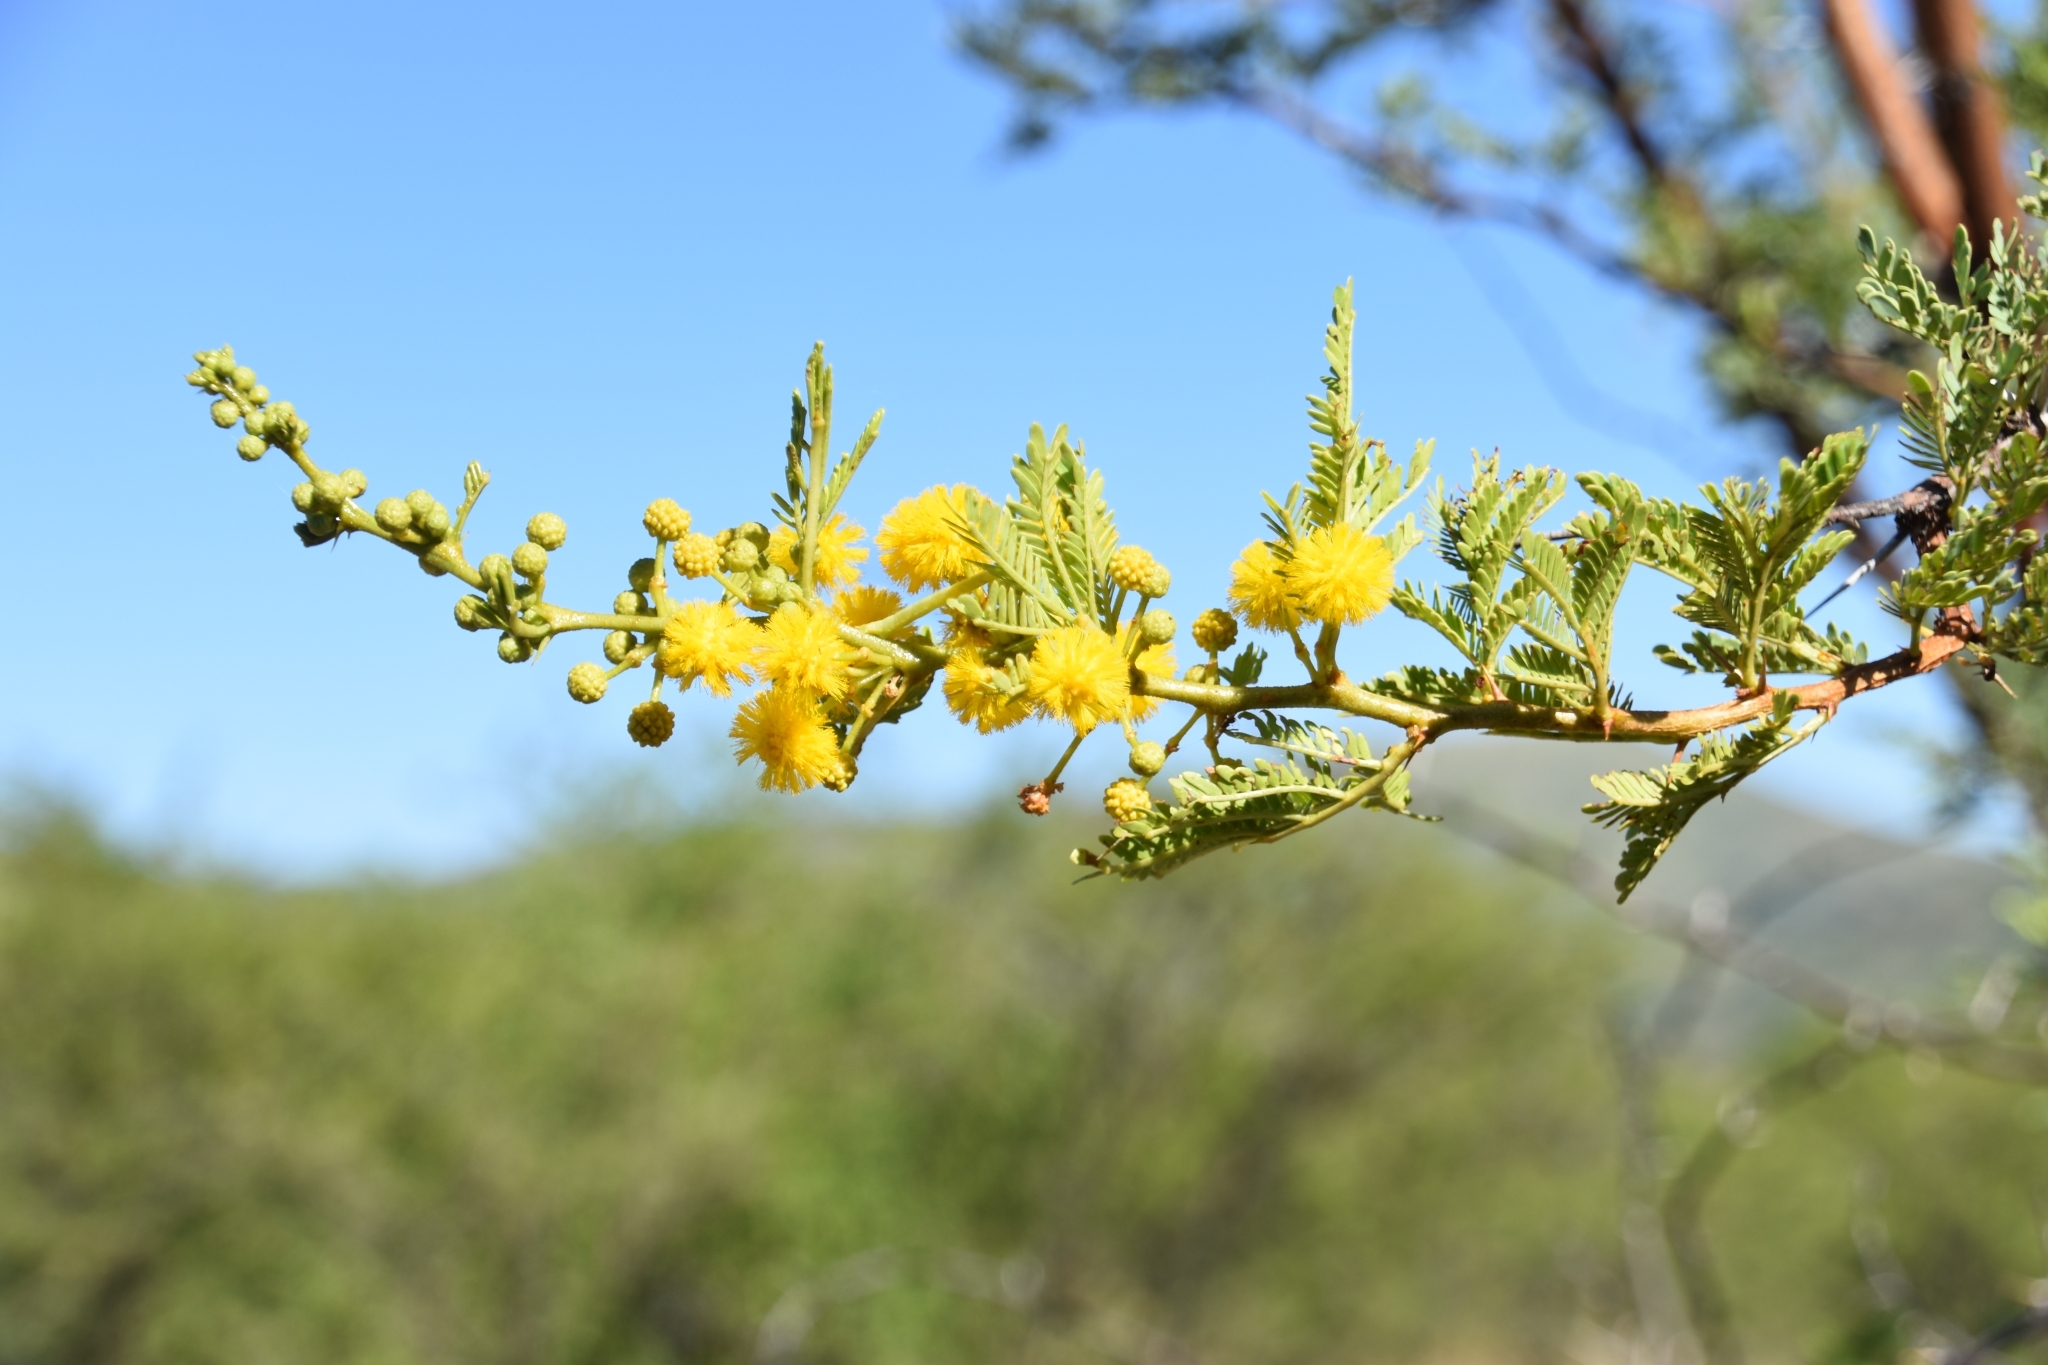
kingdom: Plantae
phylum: Tracheophyta
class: Magnoliopsida
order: Fabales
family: Fabaceae
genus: Vachellia
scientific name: Vachellia karroo
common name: Sweet thorn
